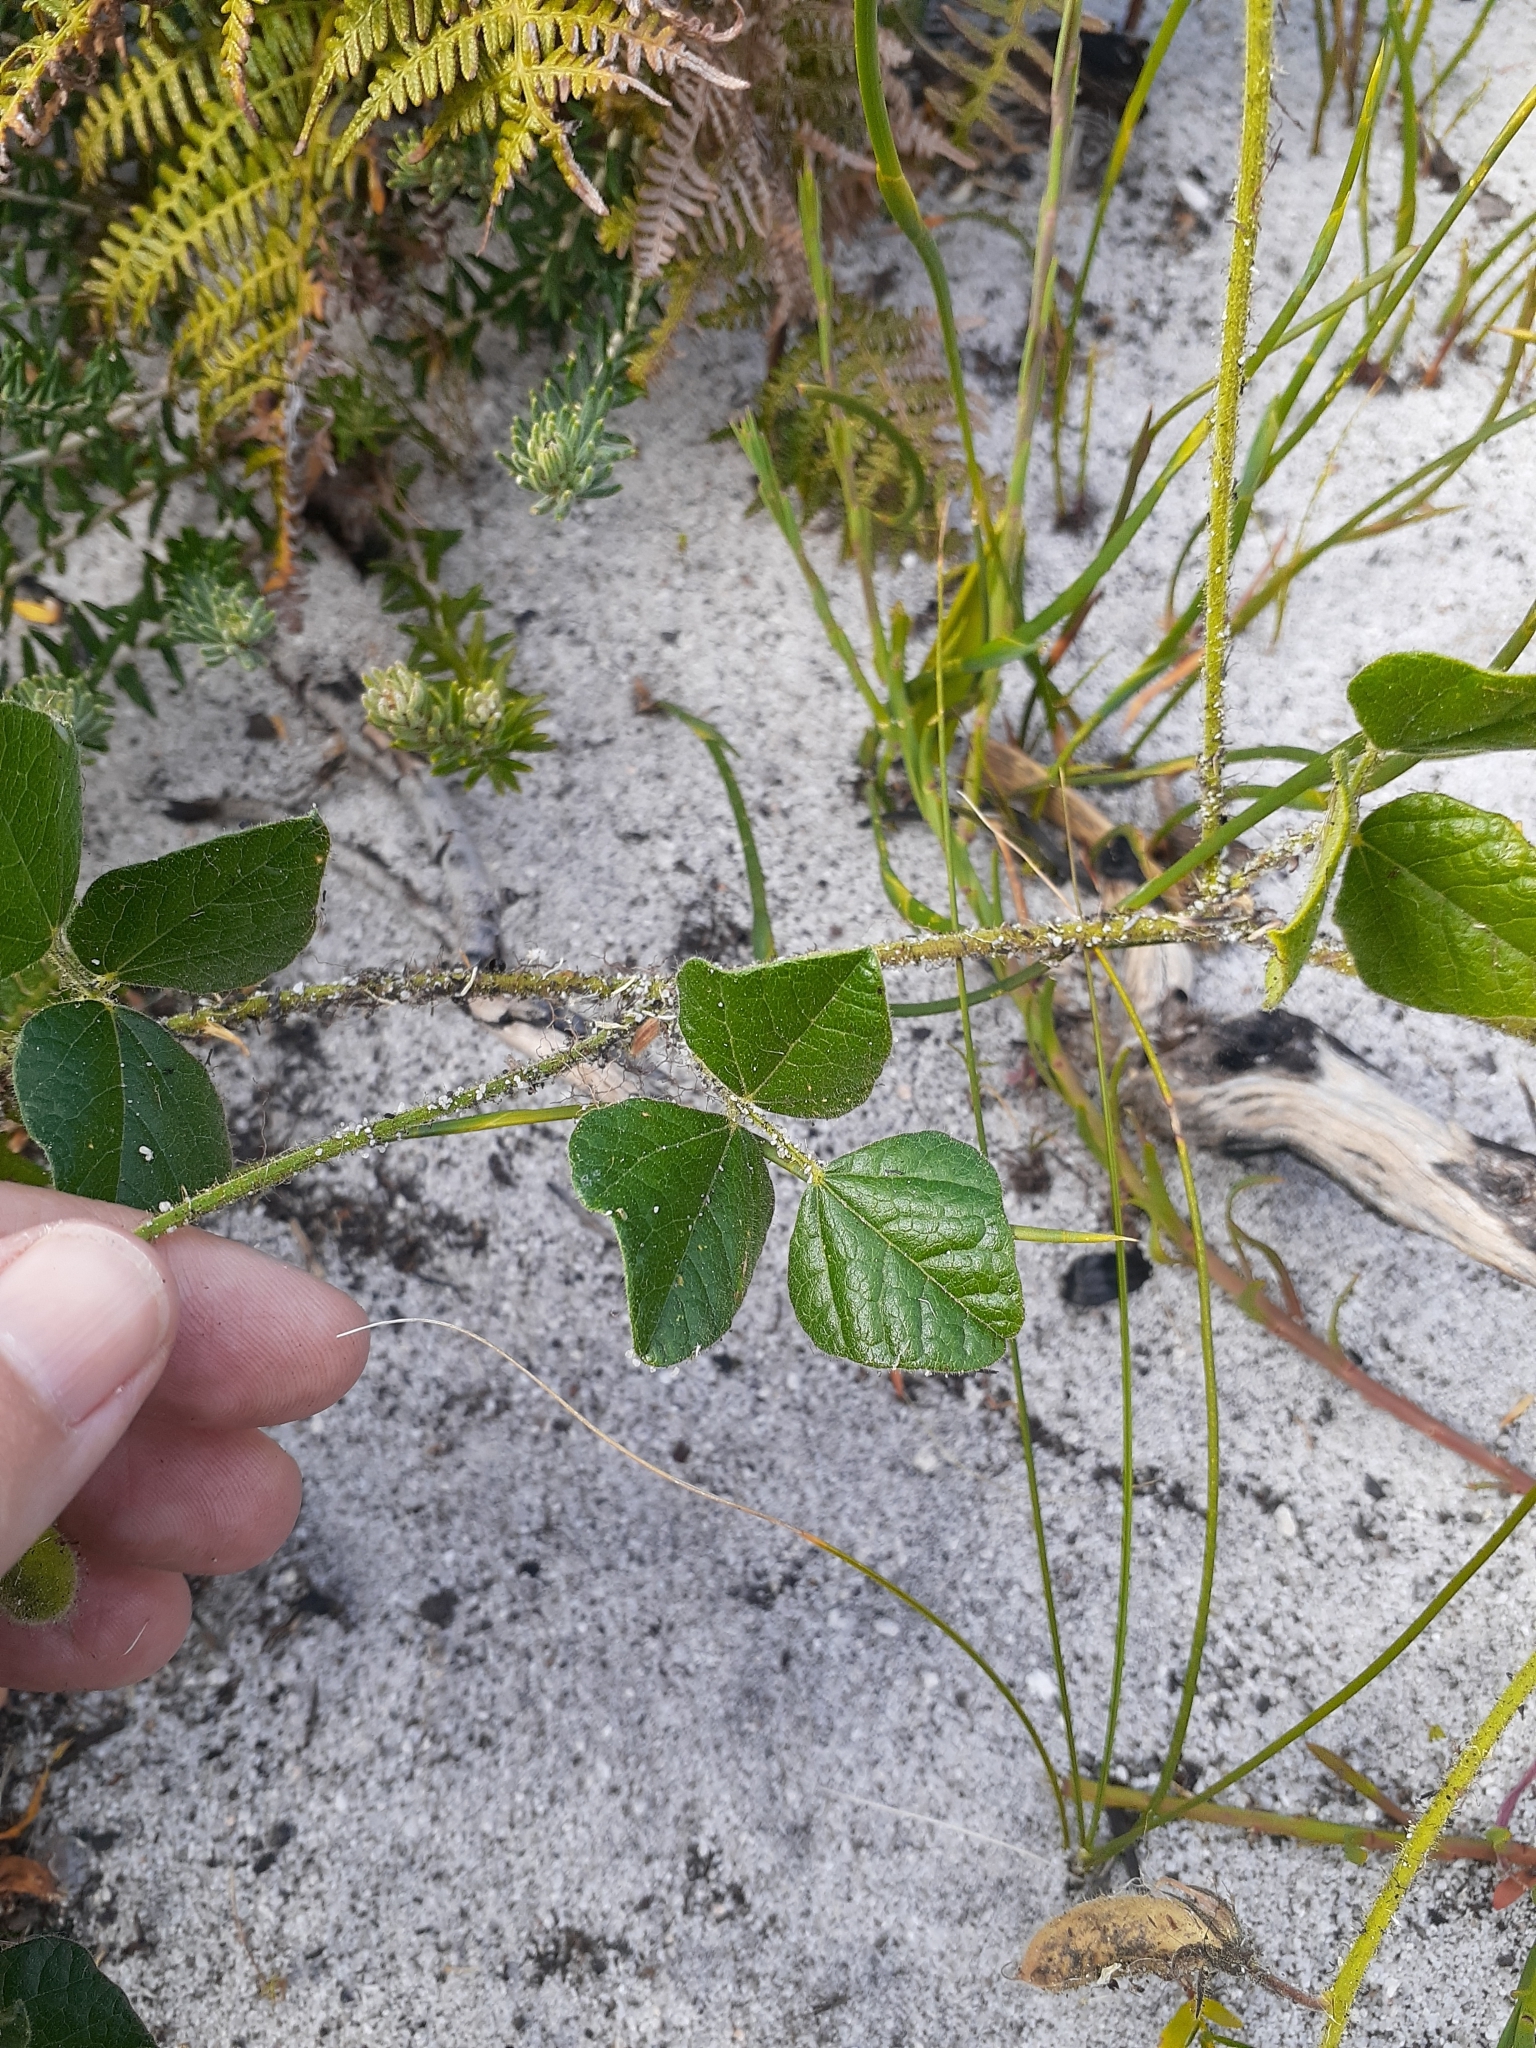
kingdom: Plantae
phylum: Tracheophyta
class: Magnoliopsida
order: Fabales
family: Fabaceae
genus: Bolusafra
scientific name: Bolusafra bituminosa
